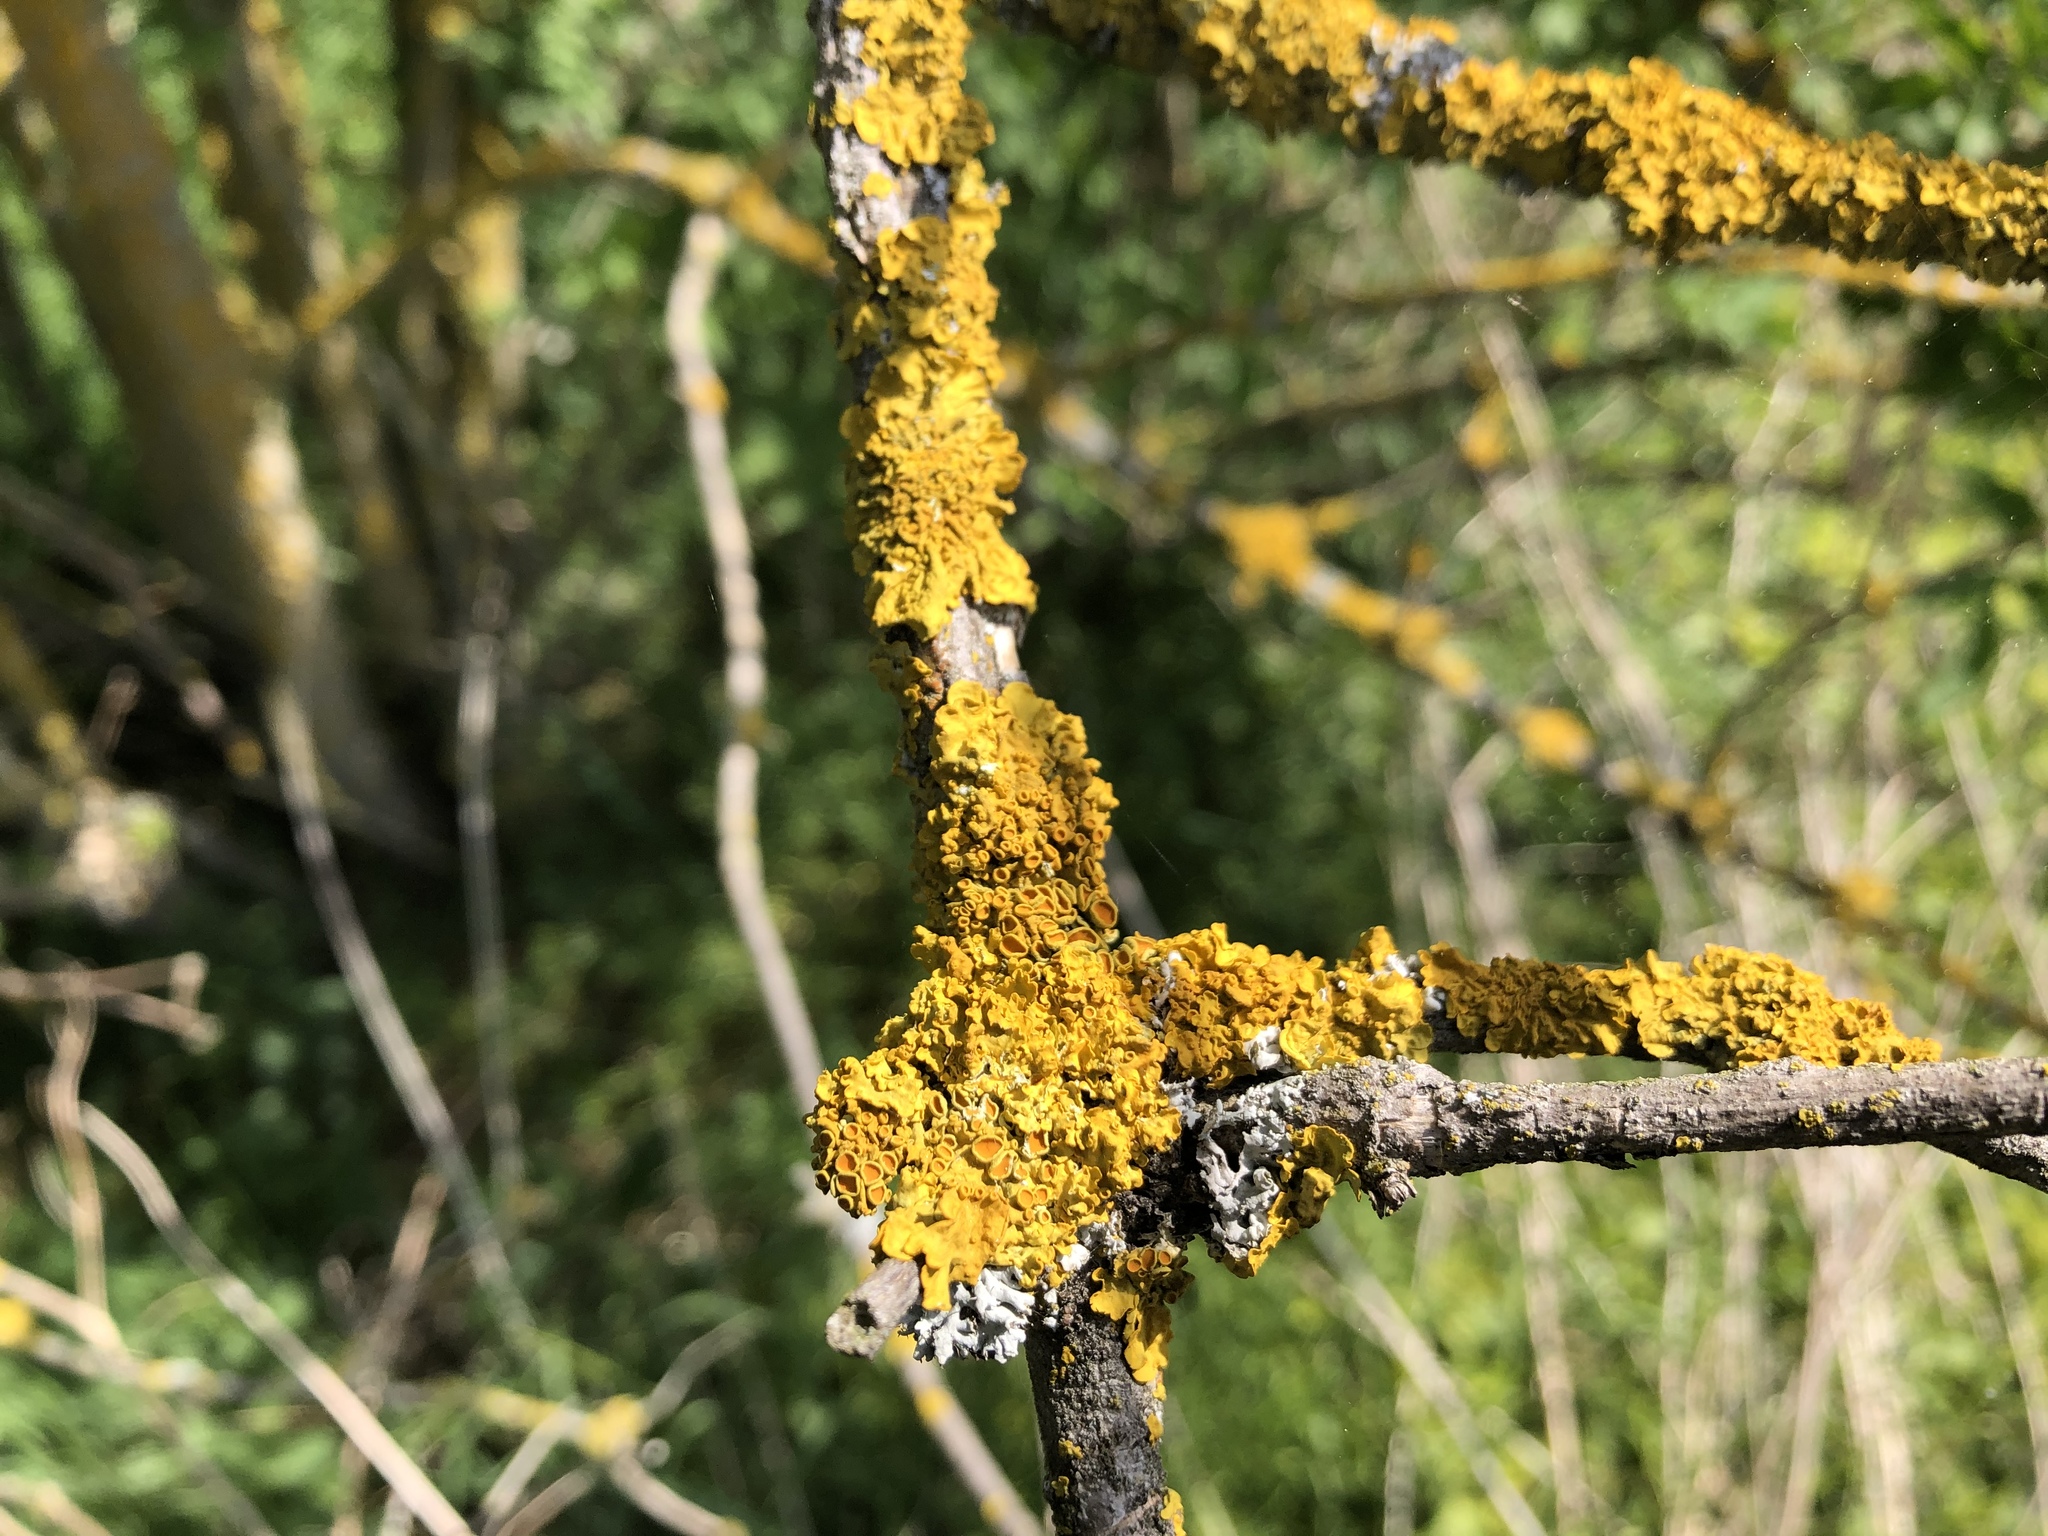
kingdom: Fungi
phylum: Ascomycota
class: Lecanoromycetes
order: Teloschistales
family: Teloschistaceae
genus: Xanthoria
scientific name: Xanthoria parietina
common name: Common orange lichen
